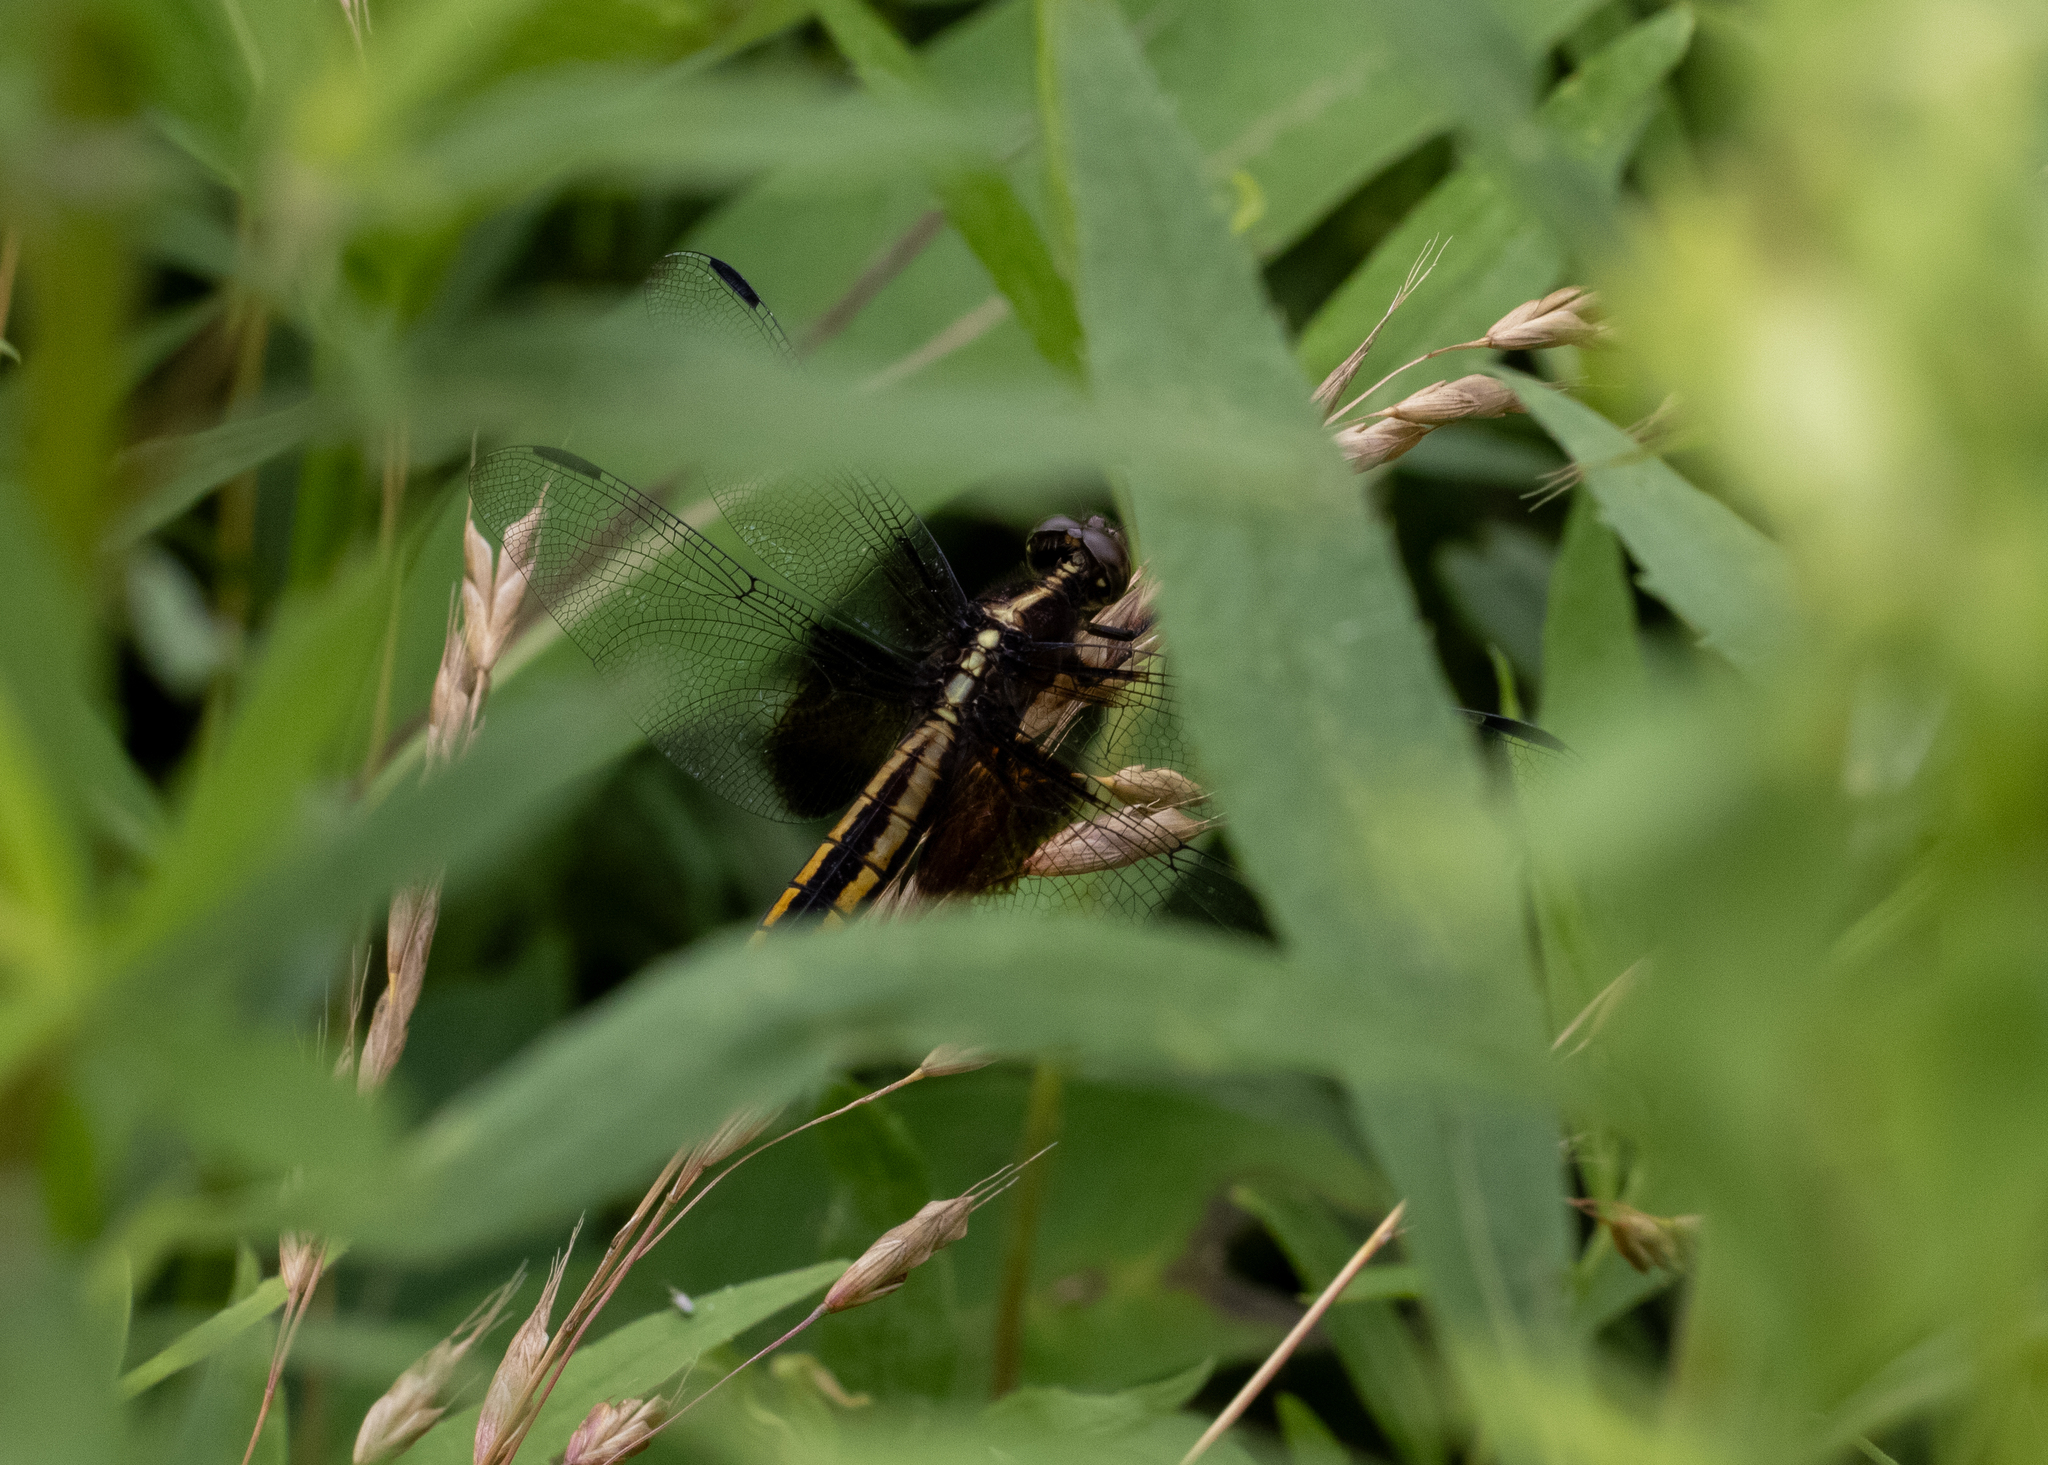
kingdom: Animalia
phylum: Arthropoda
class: Insecta
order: Odonata
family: Libellulidae
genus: Libellula
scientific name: Libellula luctuosa
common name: Widow skimmer
